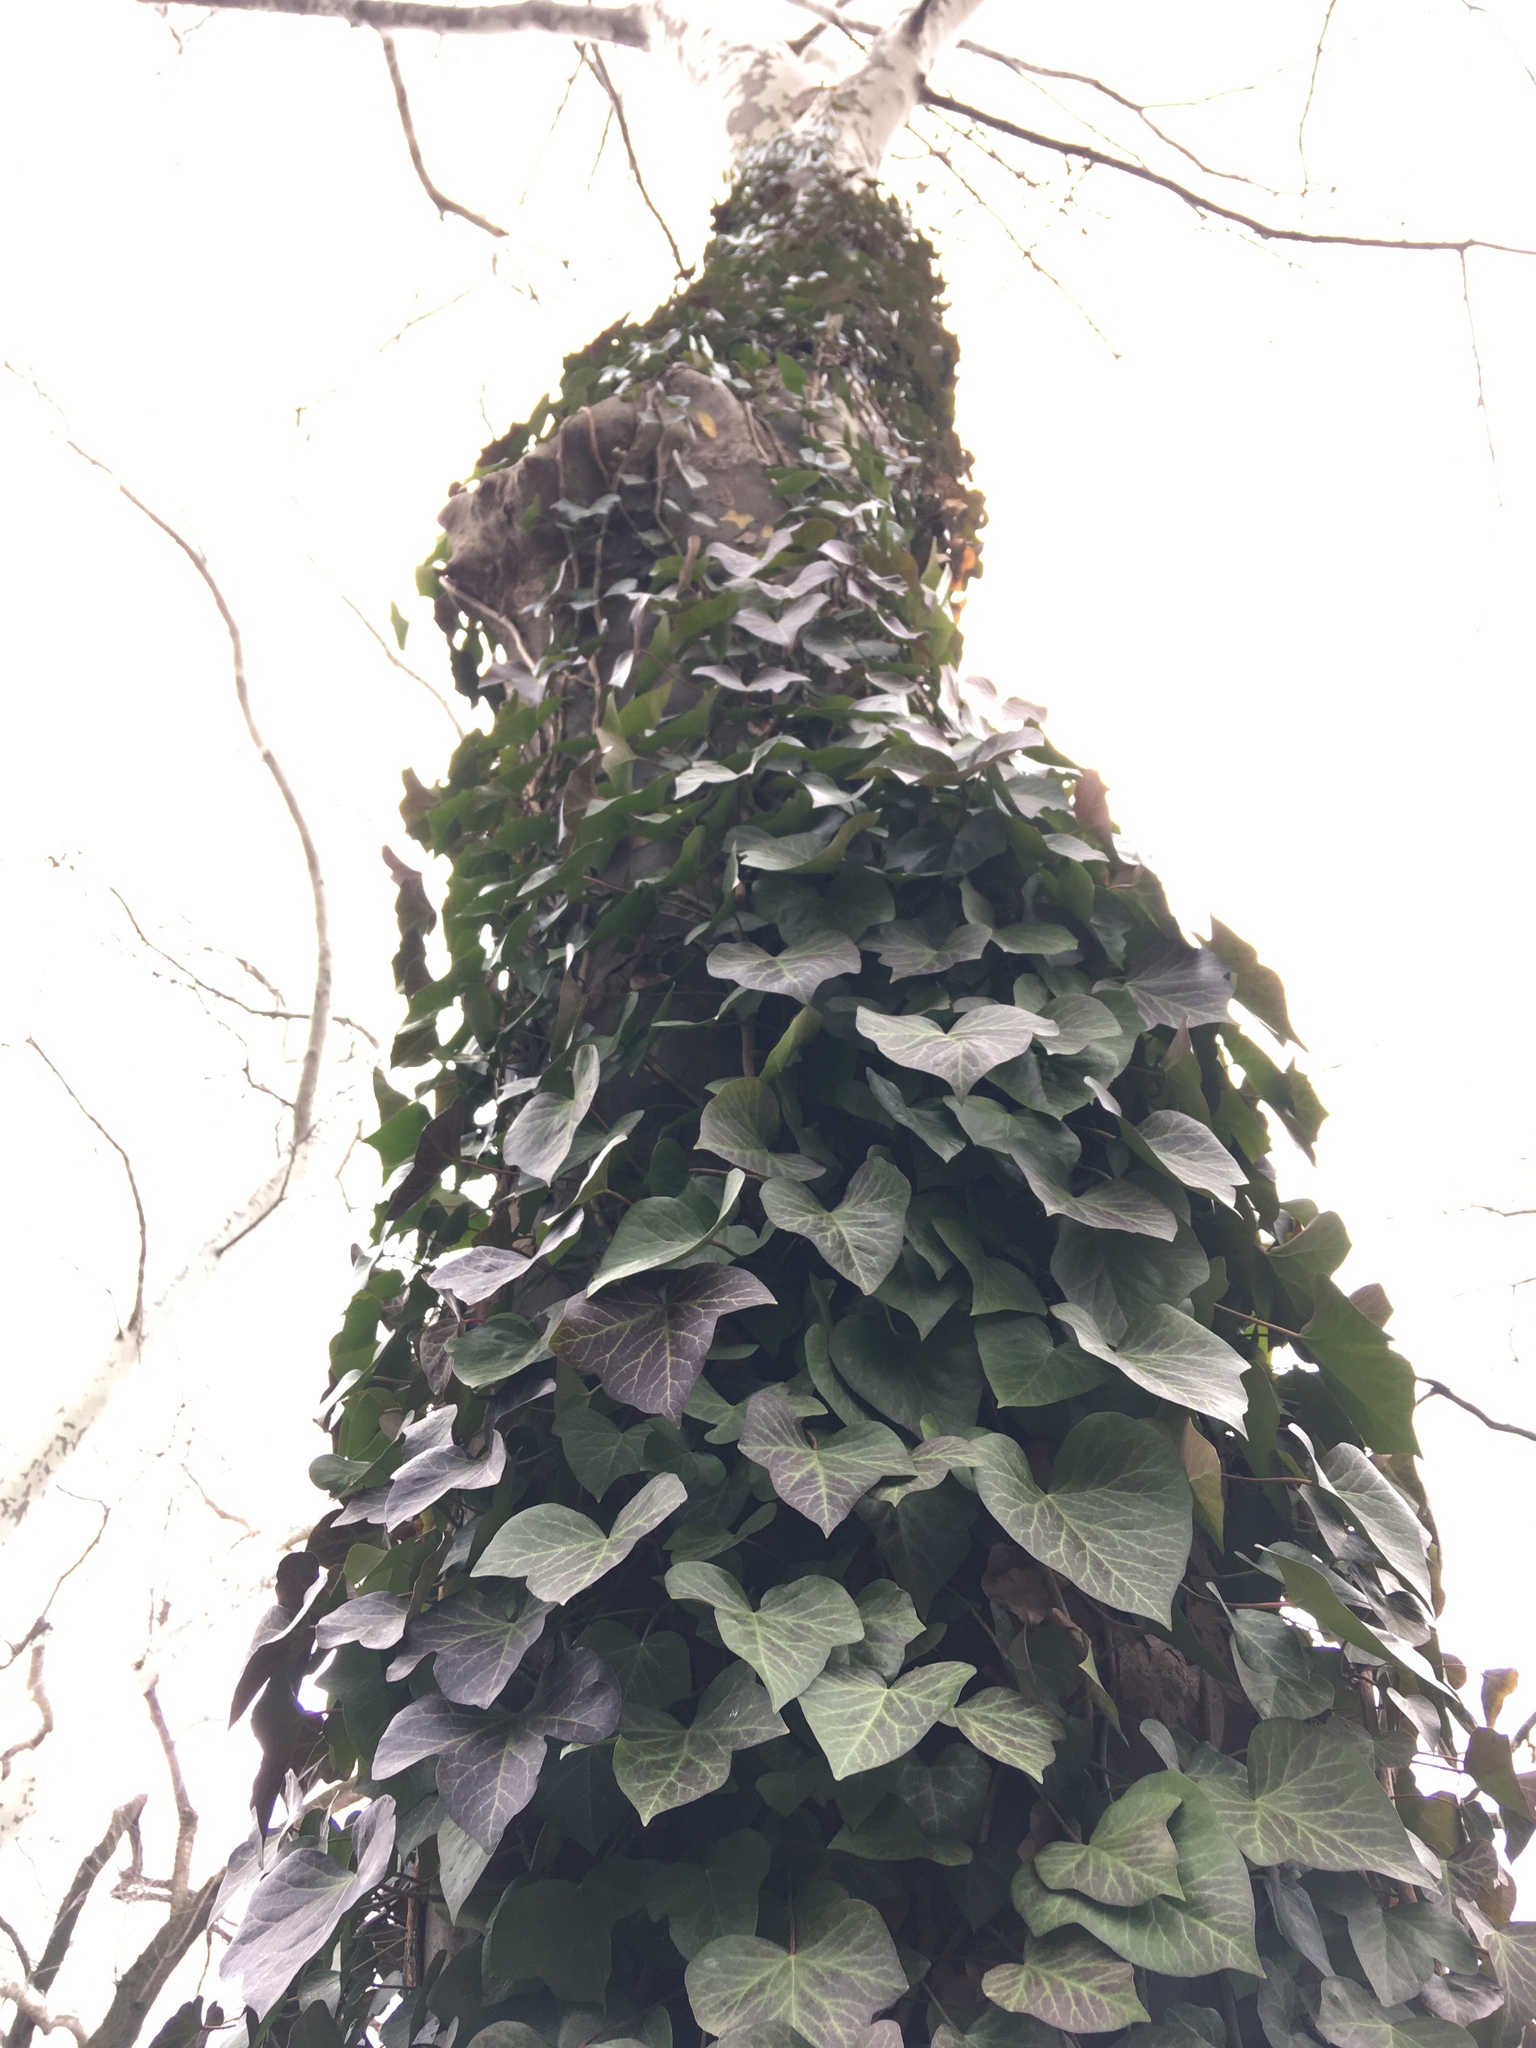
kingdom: Plantae
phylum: Tracheophyta
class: Magnoliopsida
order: Apiales
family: Araliaceae
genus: Hedera
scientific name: Hedera helix
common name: Ivy
